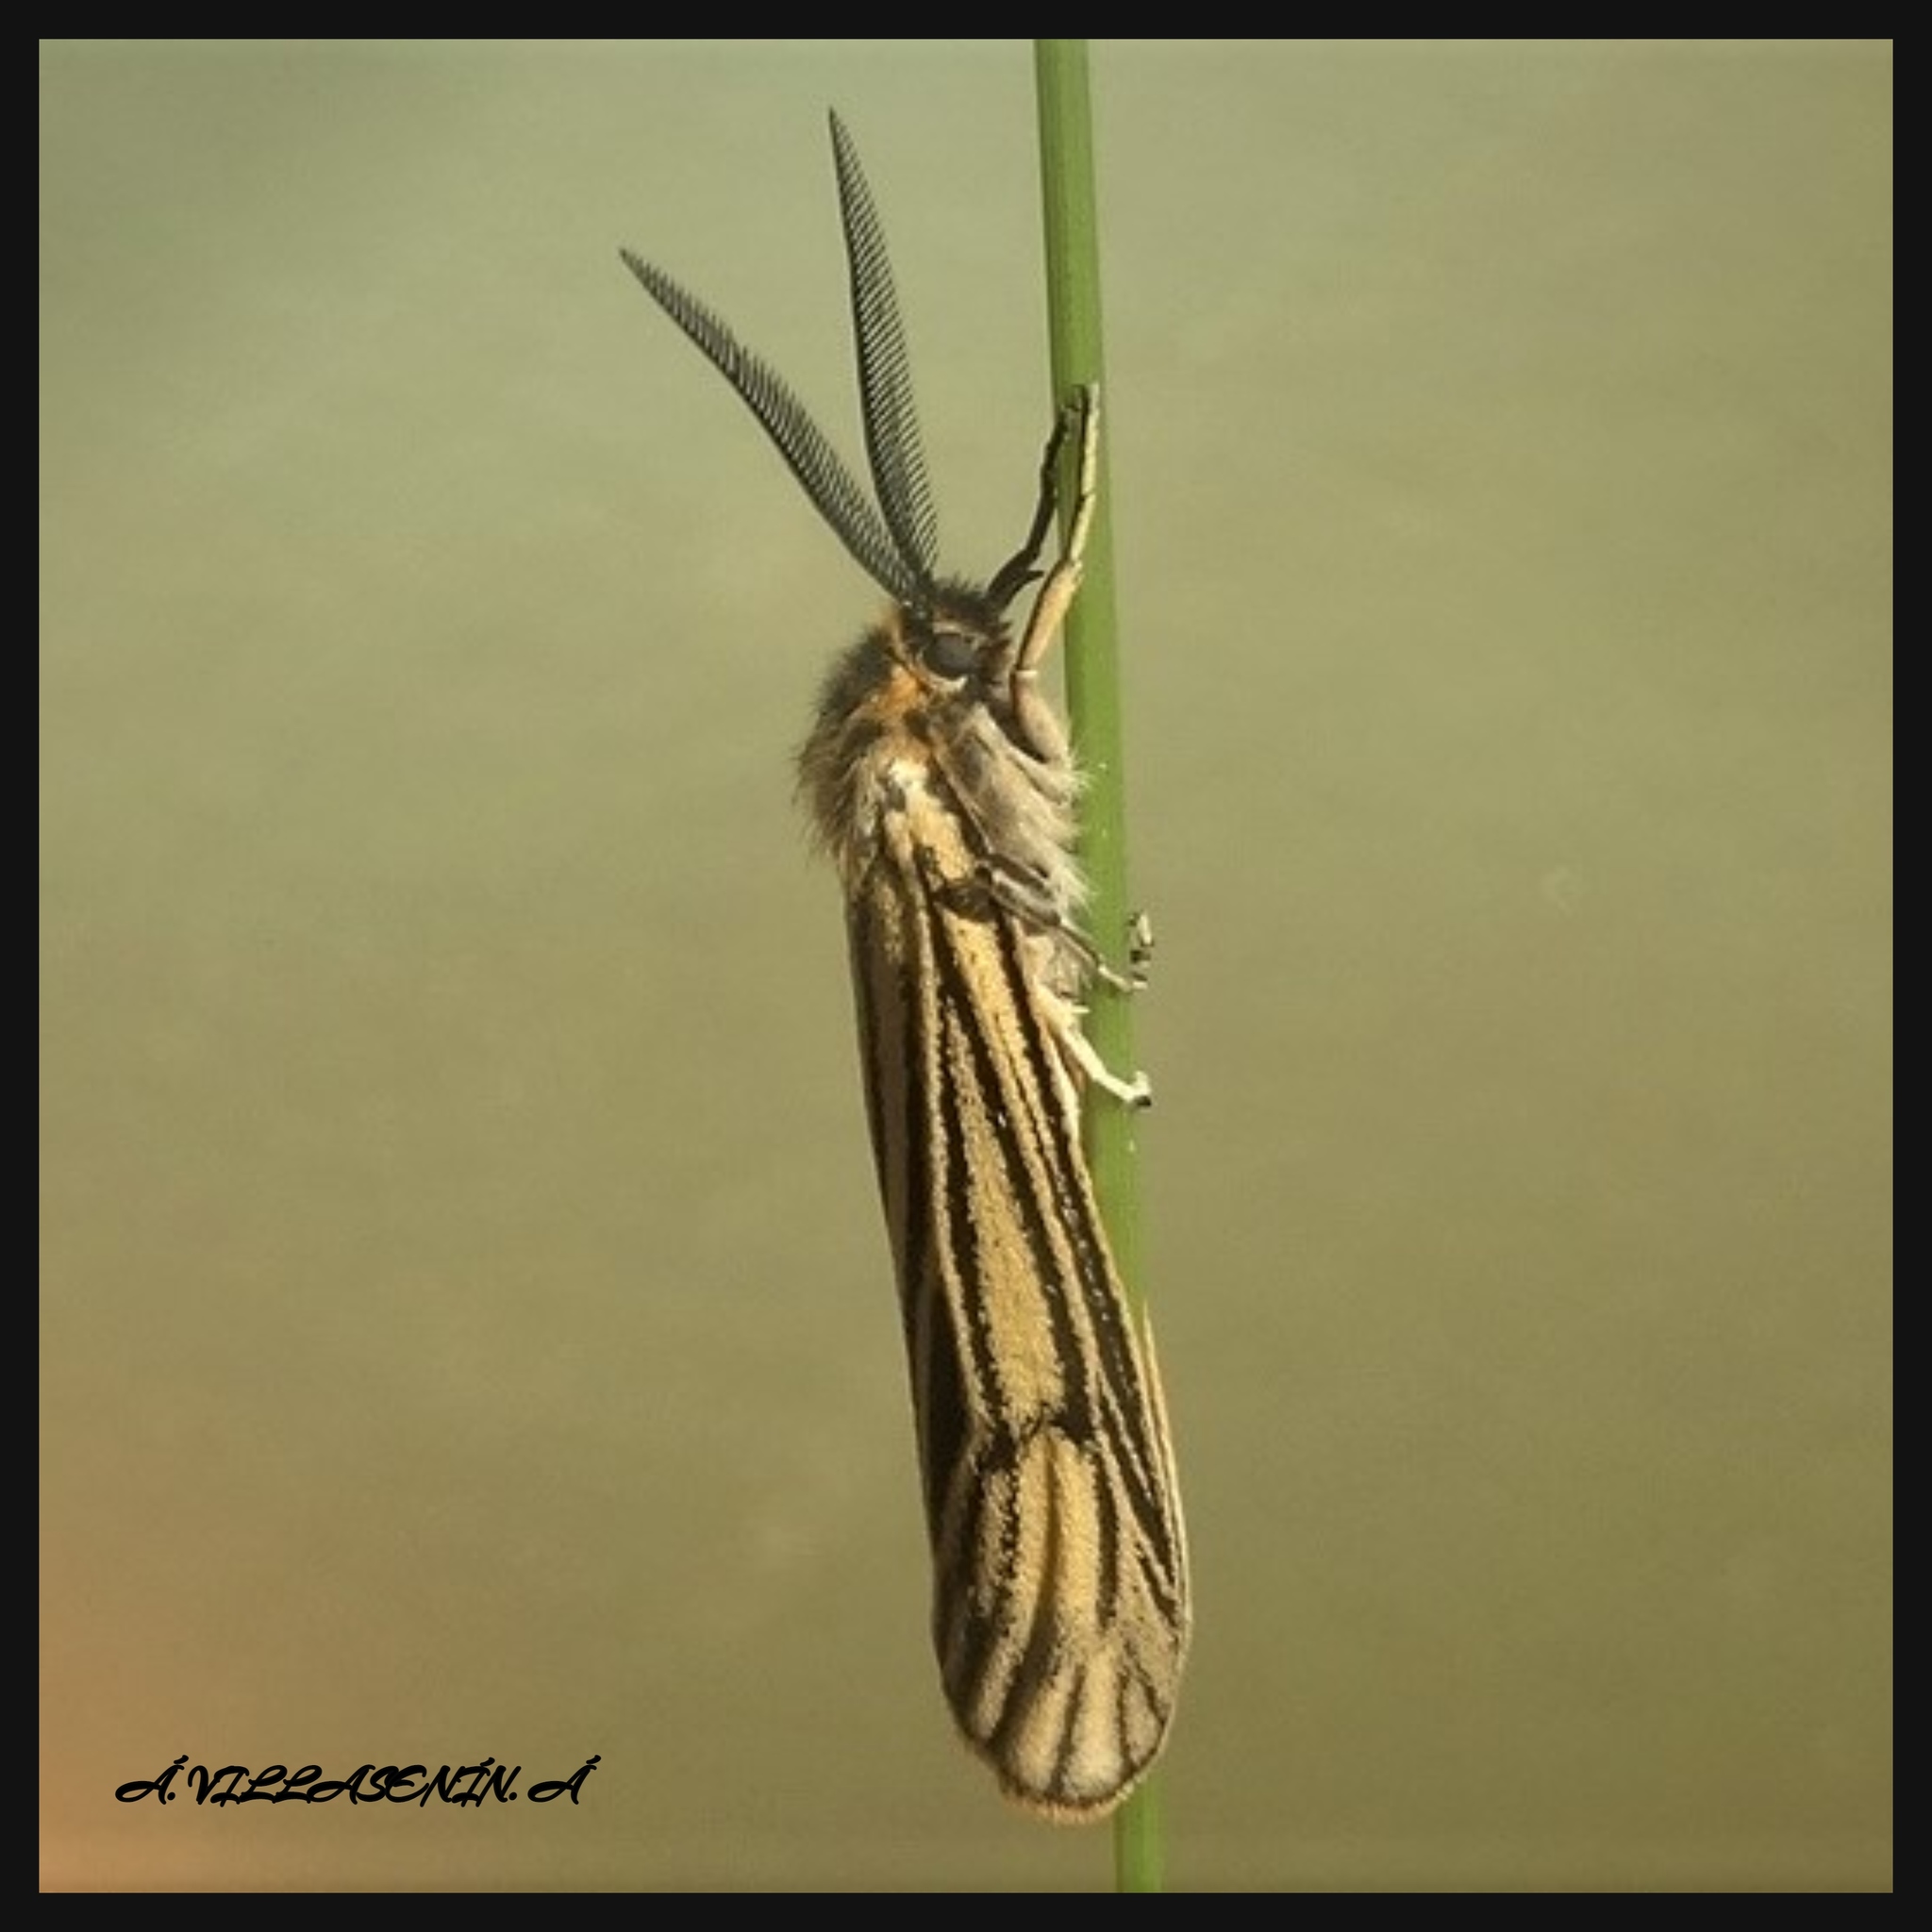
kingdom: Animalia
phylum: Arthropoda
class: Insecta
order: Lepidoptera
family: Erebidae
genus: Coscinia
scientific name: Coscinia Spiris striata
